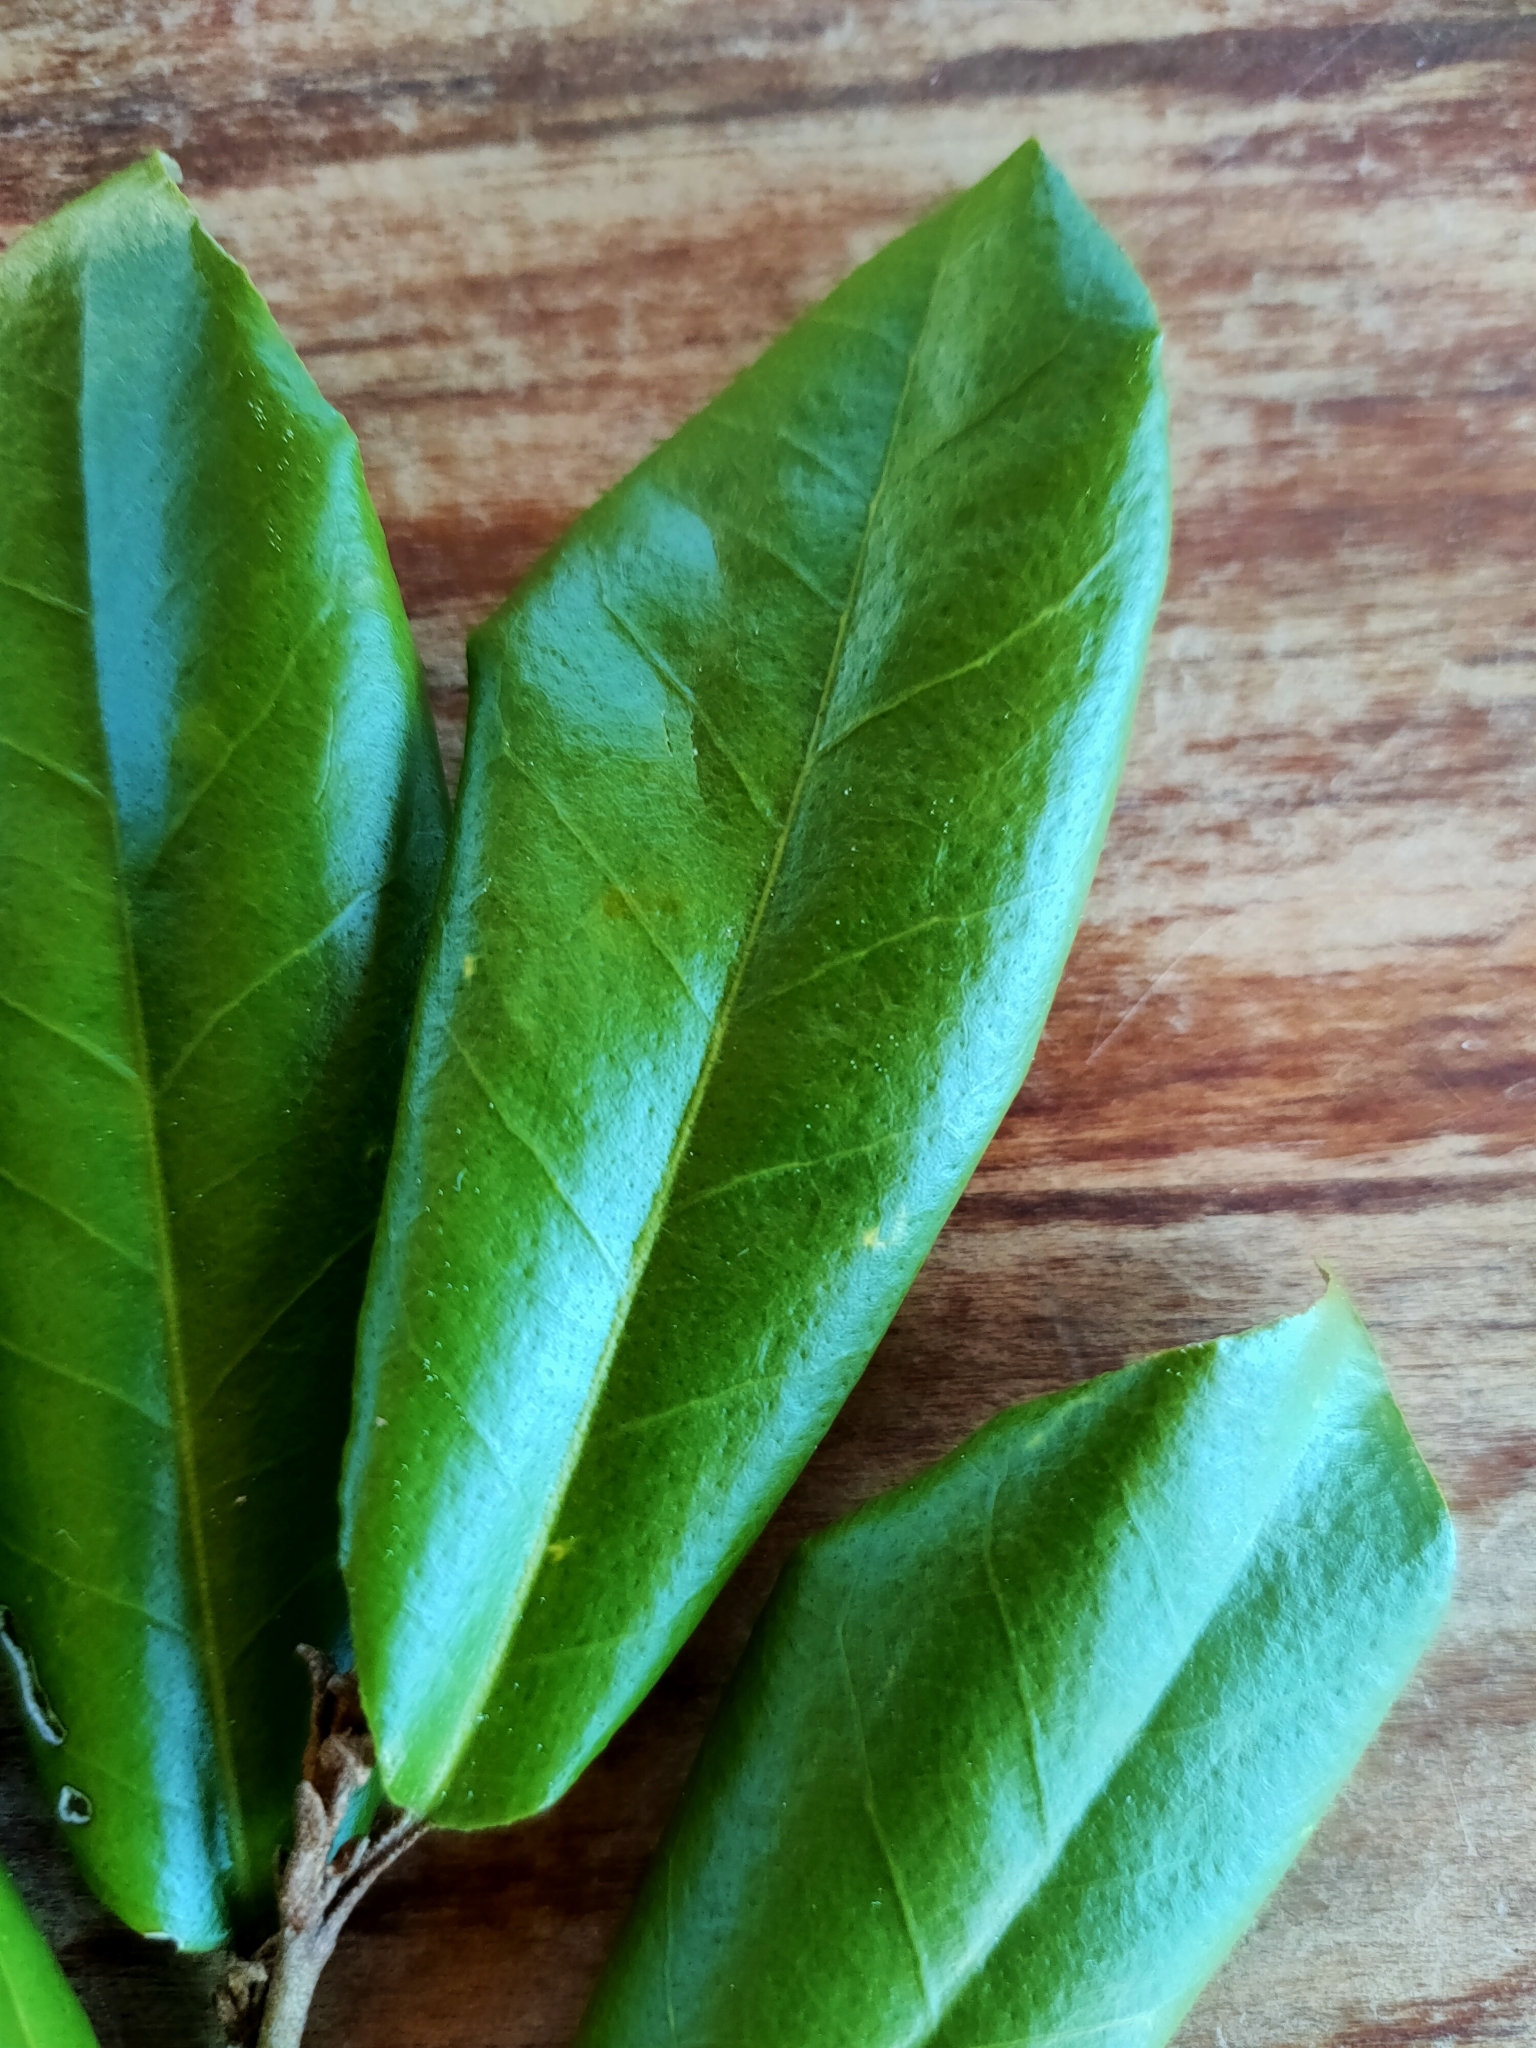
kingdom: Plantae
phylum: Tracheophyta
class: Magnoliopsida
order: Rosales
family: Elaeagnaceae
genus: Elaeagnus
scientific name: Elaeagnus reflexa
